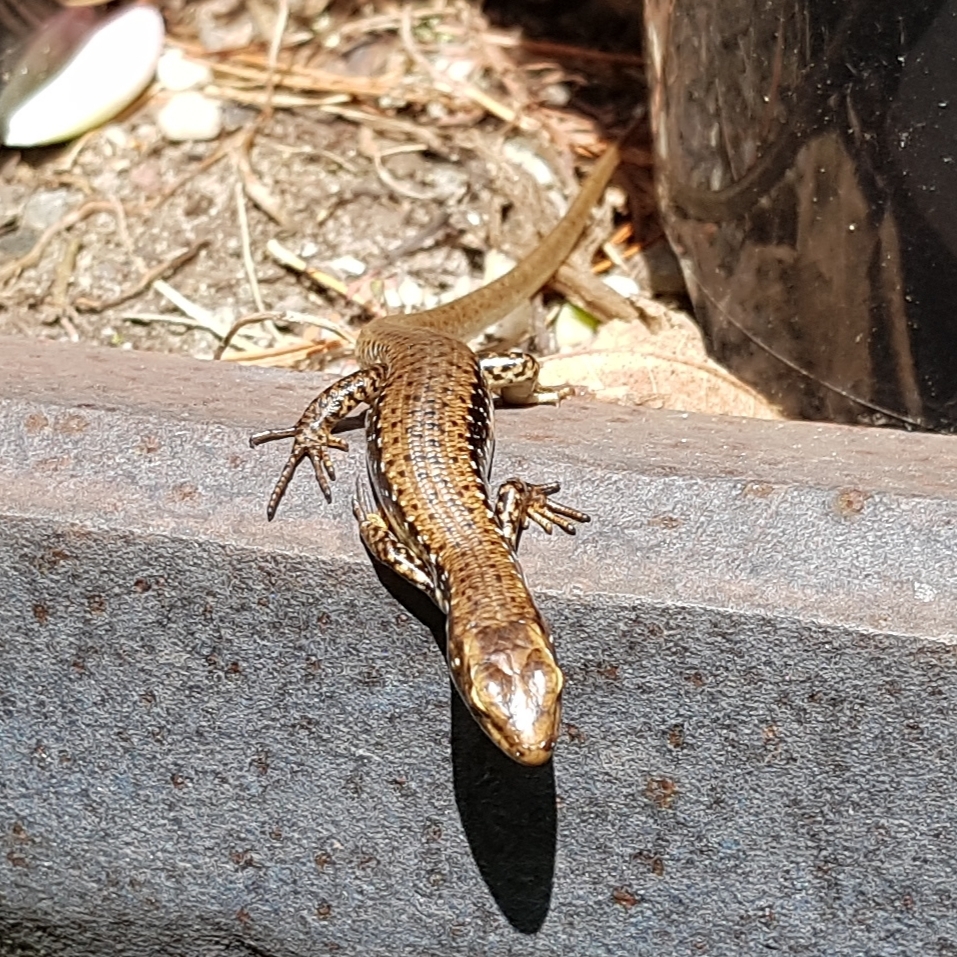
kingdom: Animalia
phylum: Chordata
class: Squamata
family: Scincidae
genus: Eulamprus
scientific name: Eulamprus tympanum
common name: Cool-temperate water-skink
